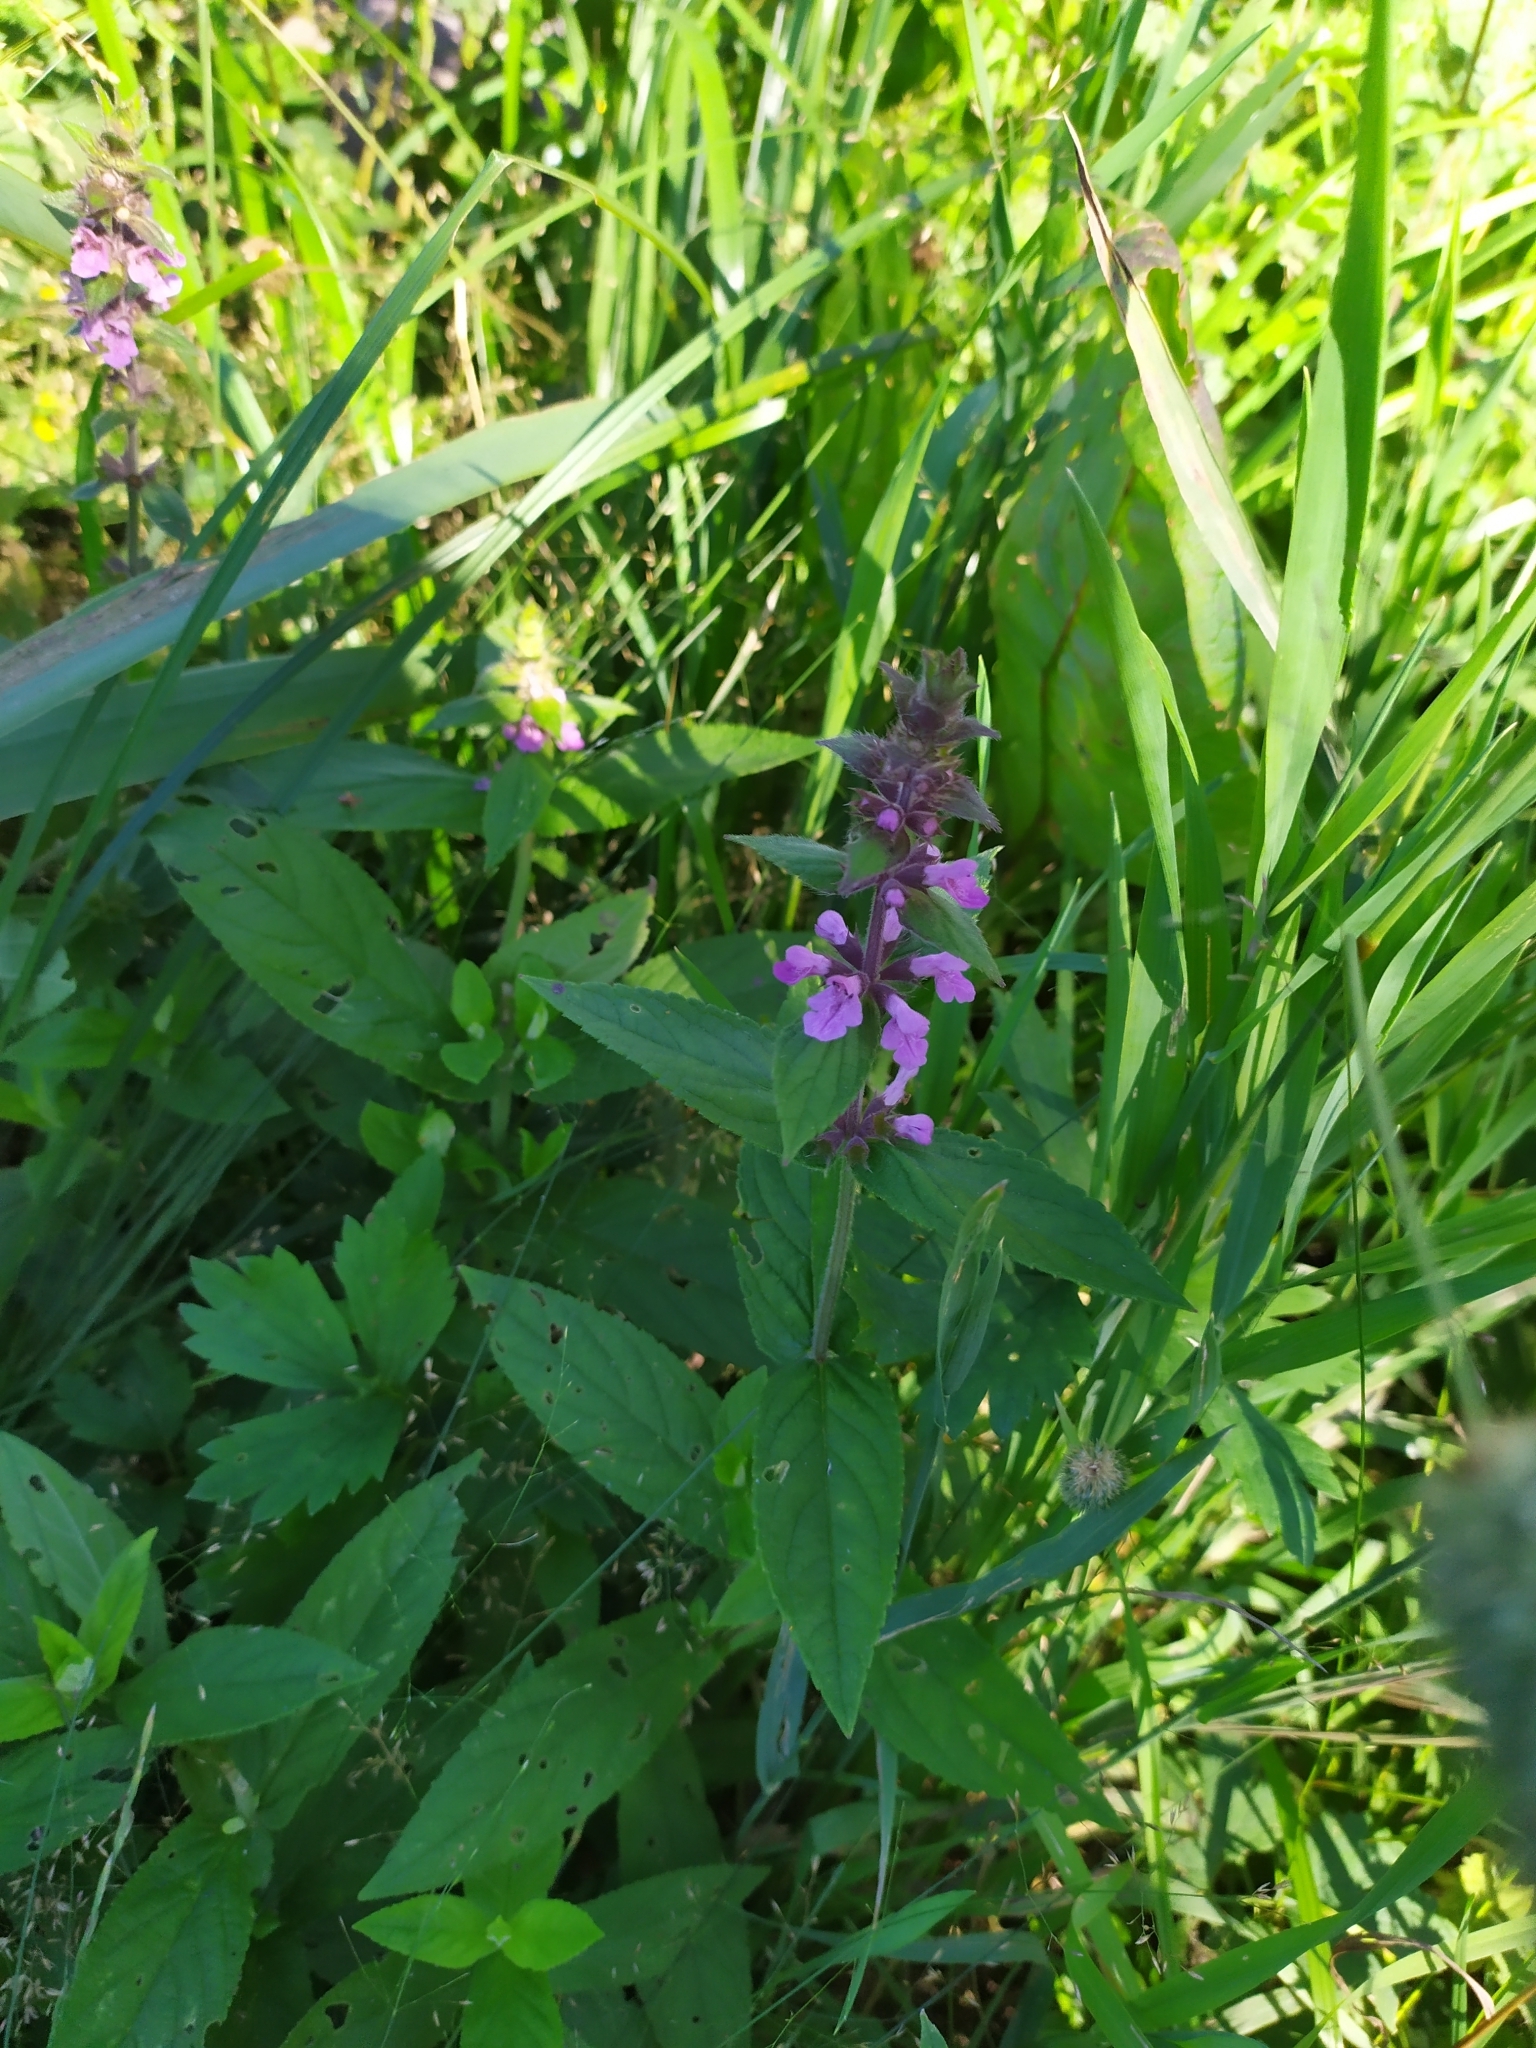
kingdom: Plantae
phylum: Tracheophyta
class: Magnoliopsida
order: Lamiales
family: Lamiaceae
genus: Stachys
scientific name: Stachys palustris
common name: Marsh woundwort
